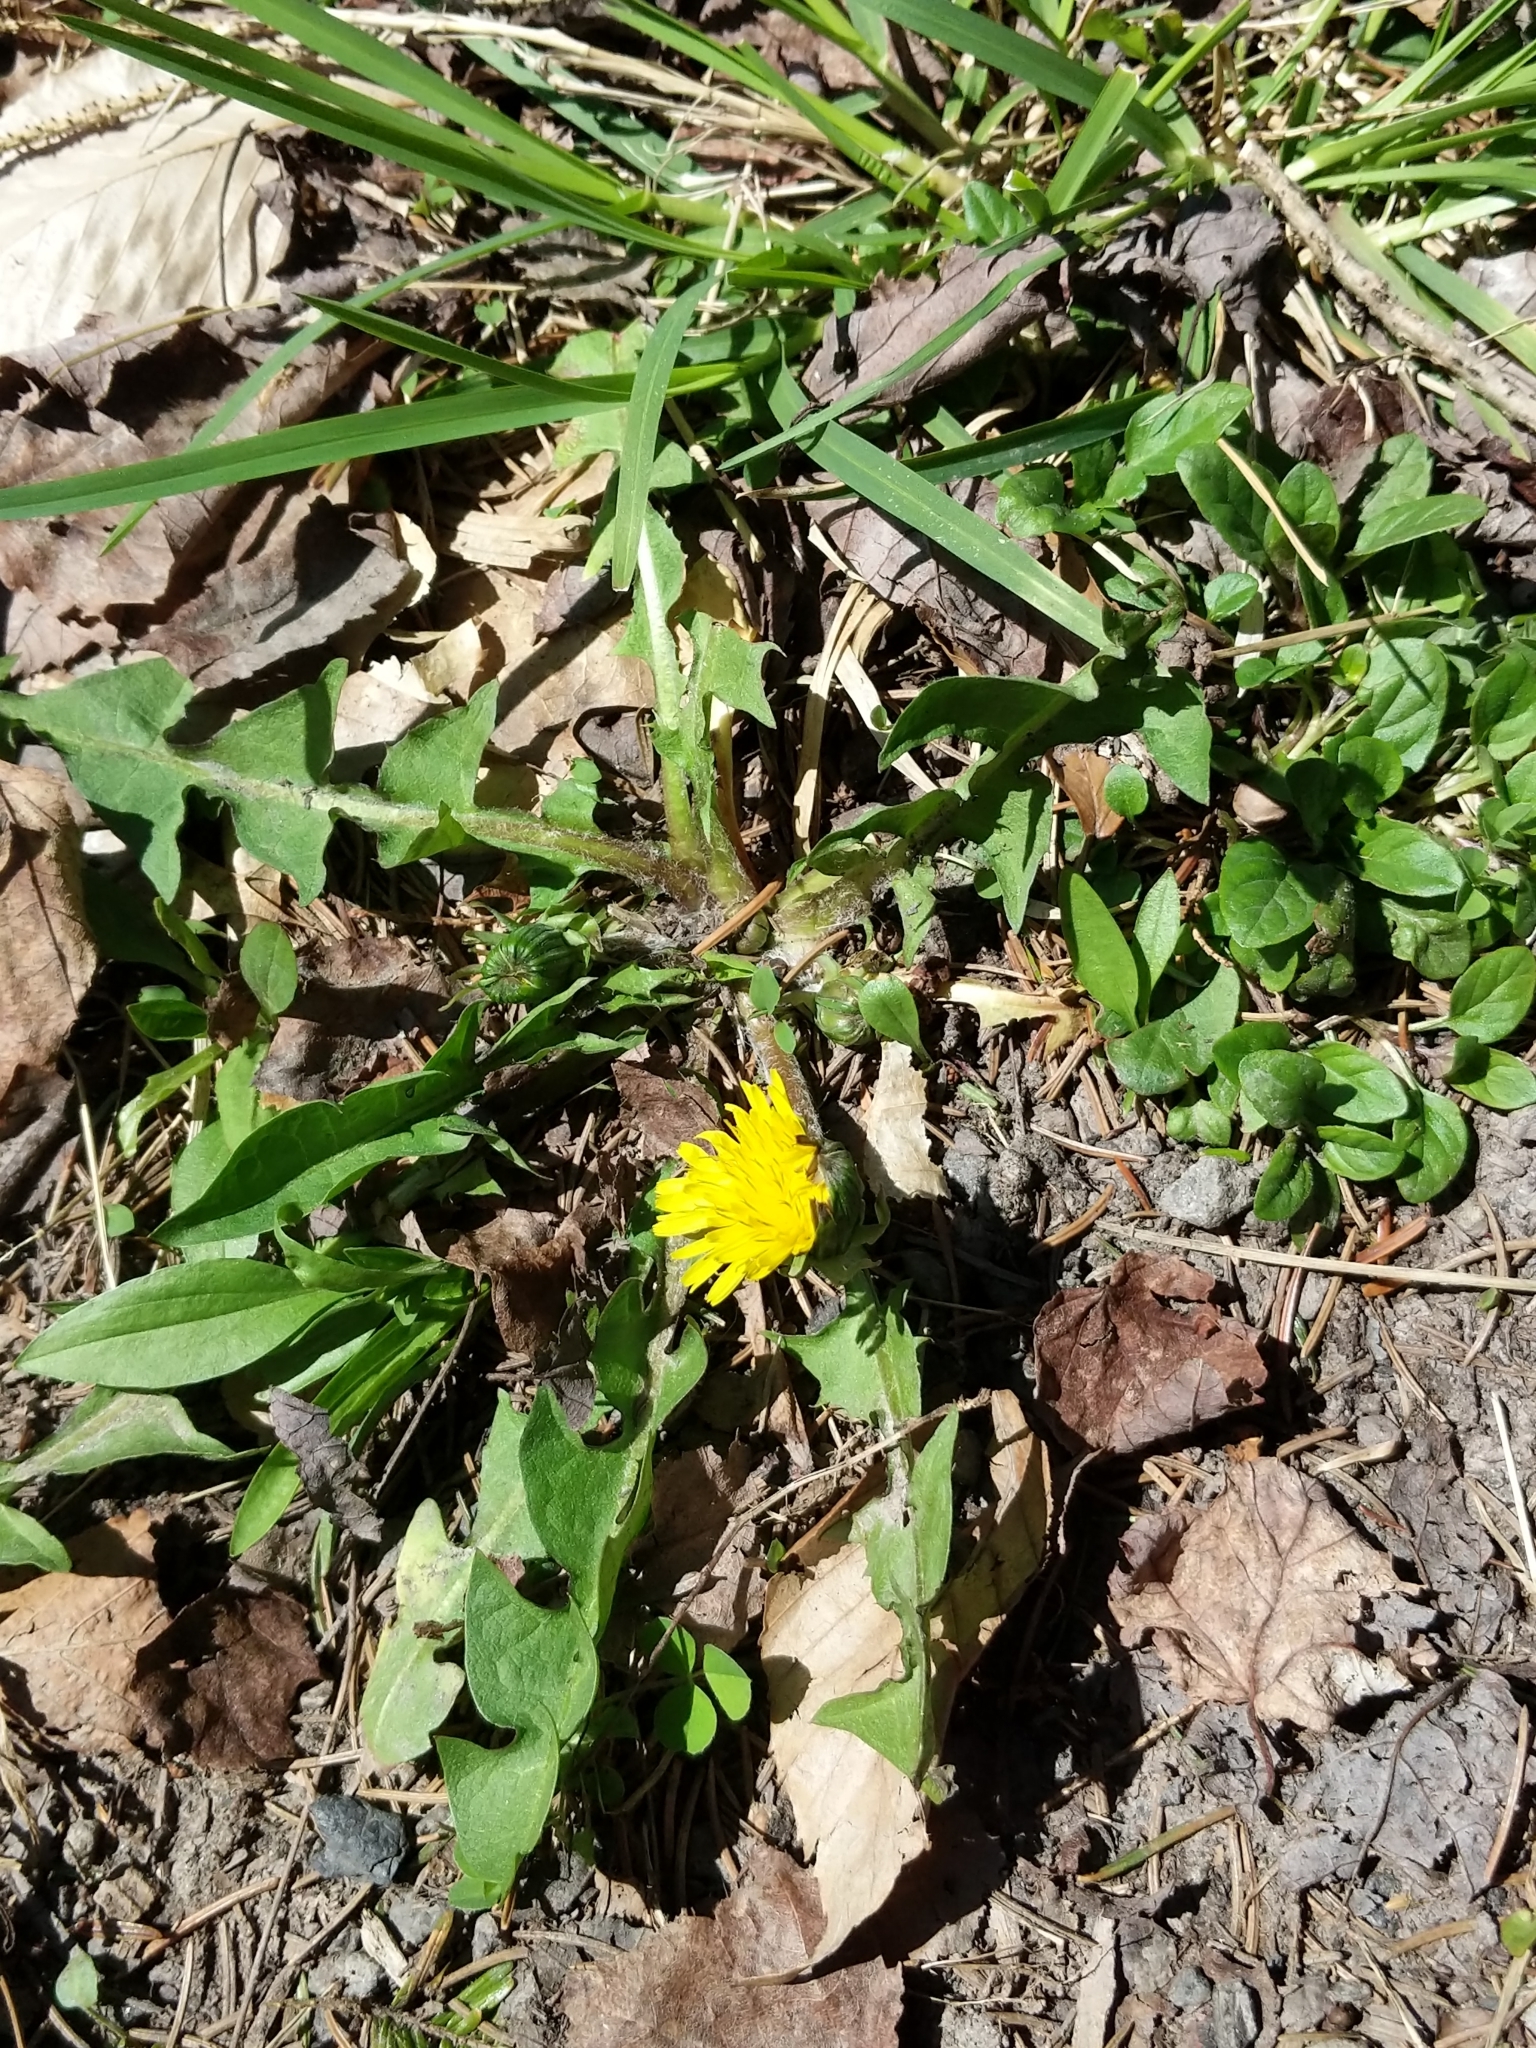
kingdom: Plantae
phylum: Tracheophyta
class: Magnoliopsida
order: Asterales
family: Asteraceae
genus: Taraxacum
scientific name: Taraxacum
